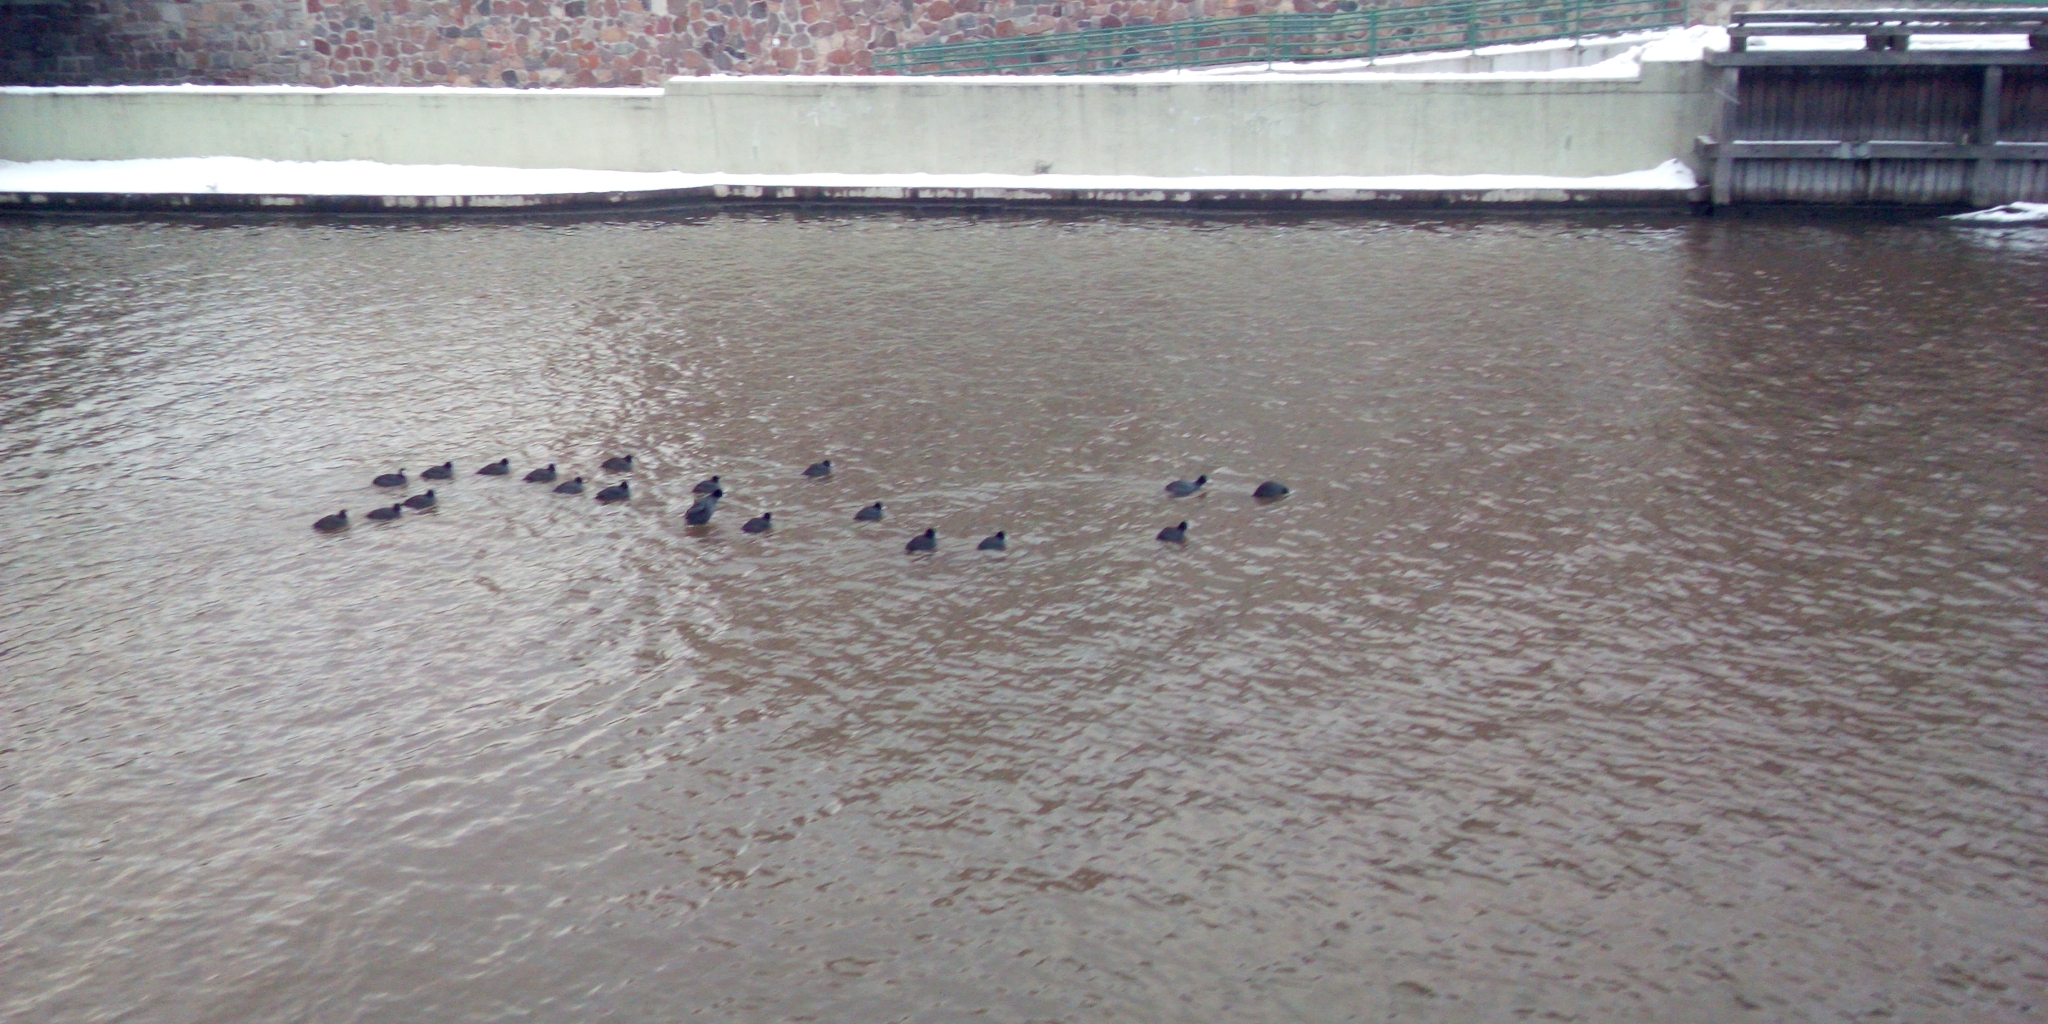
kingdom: Animalia
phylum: Chordata
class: Aves
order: Gruiformes
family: Rallidae
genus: Fulica
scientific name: Fulica atra
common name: Eurasian coot
